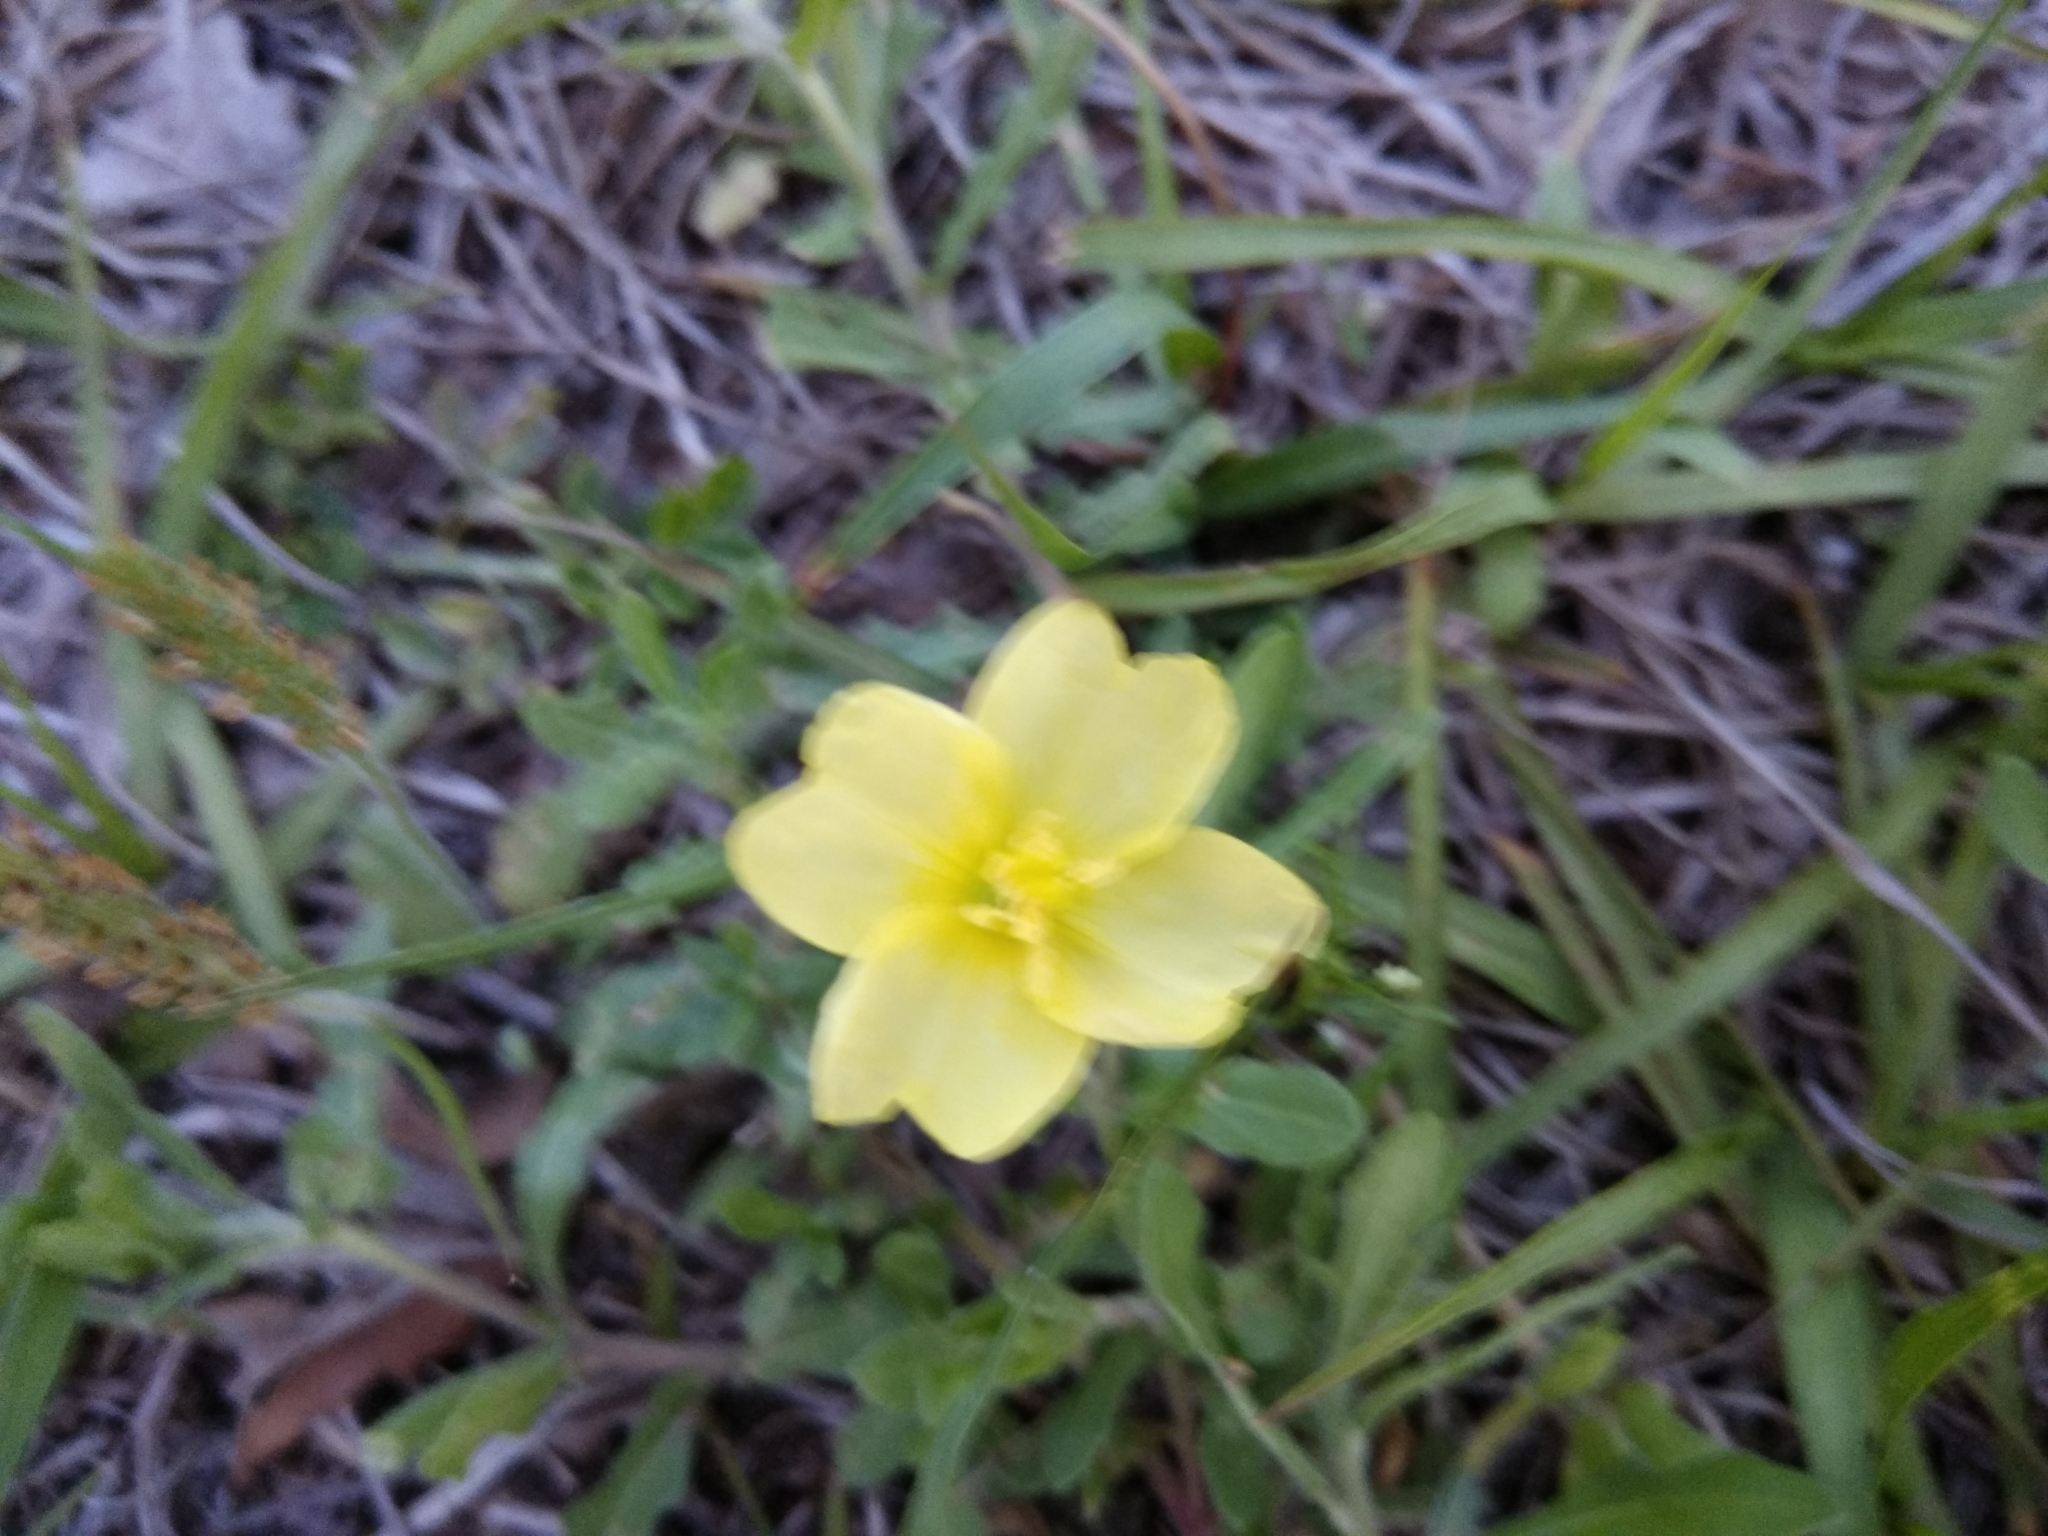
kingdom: Plantae
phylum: Tracheophyta
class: Magnoliopsida
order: Myrtales
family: Onagraceae
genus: Oenothera
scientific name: Oenothera laciniata
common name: Cut-leaved evening-primrose
